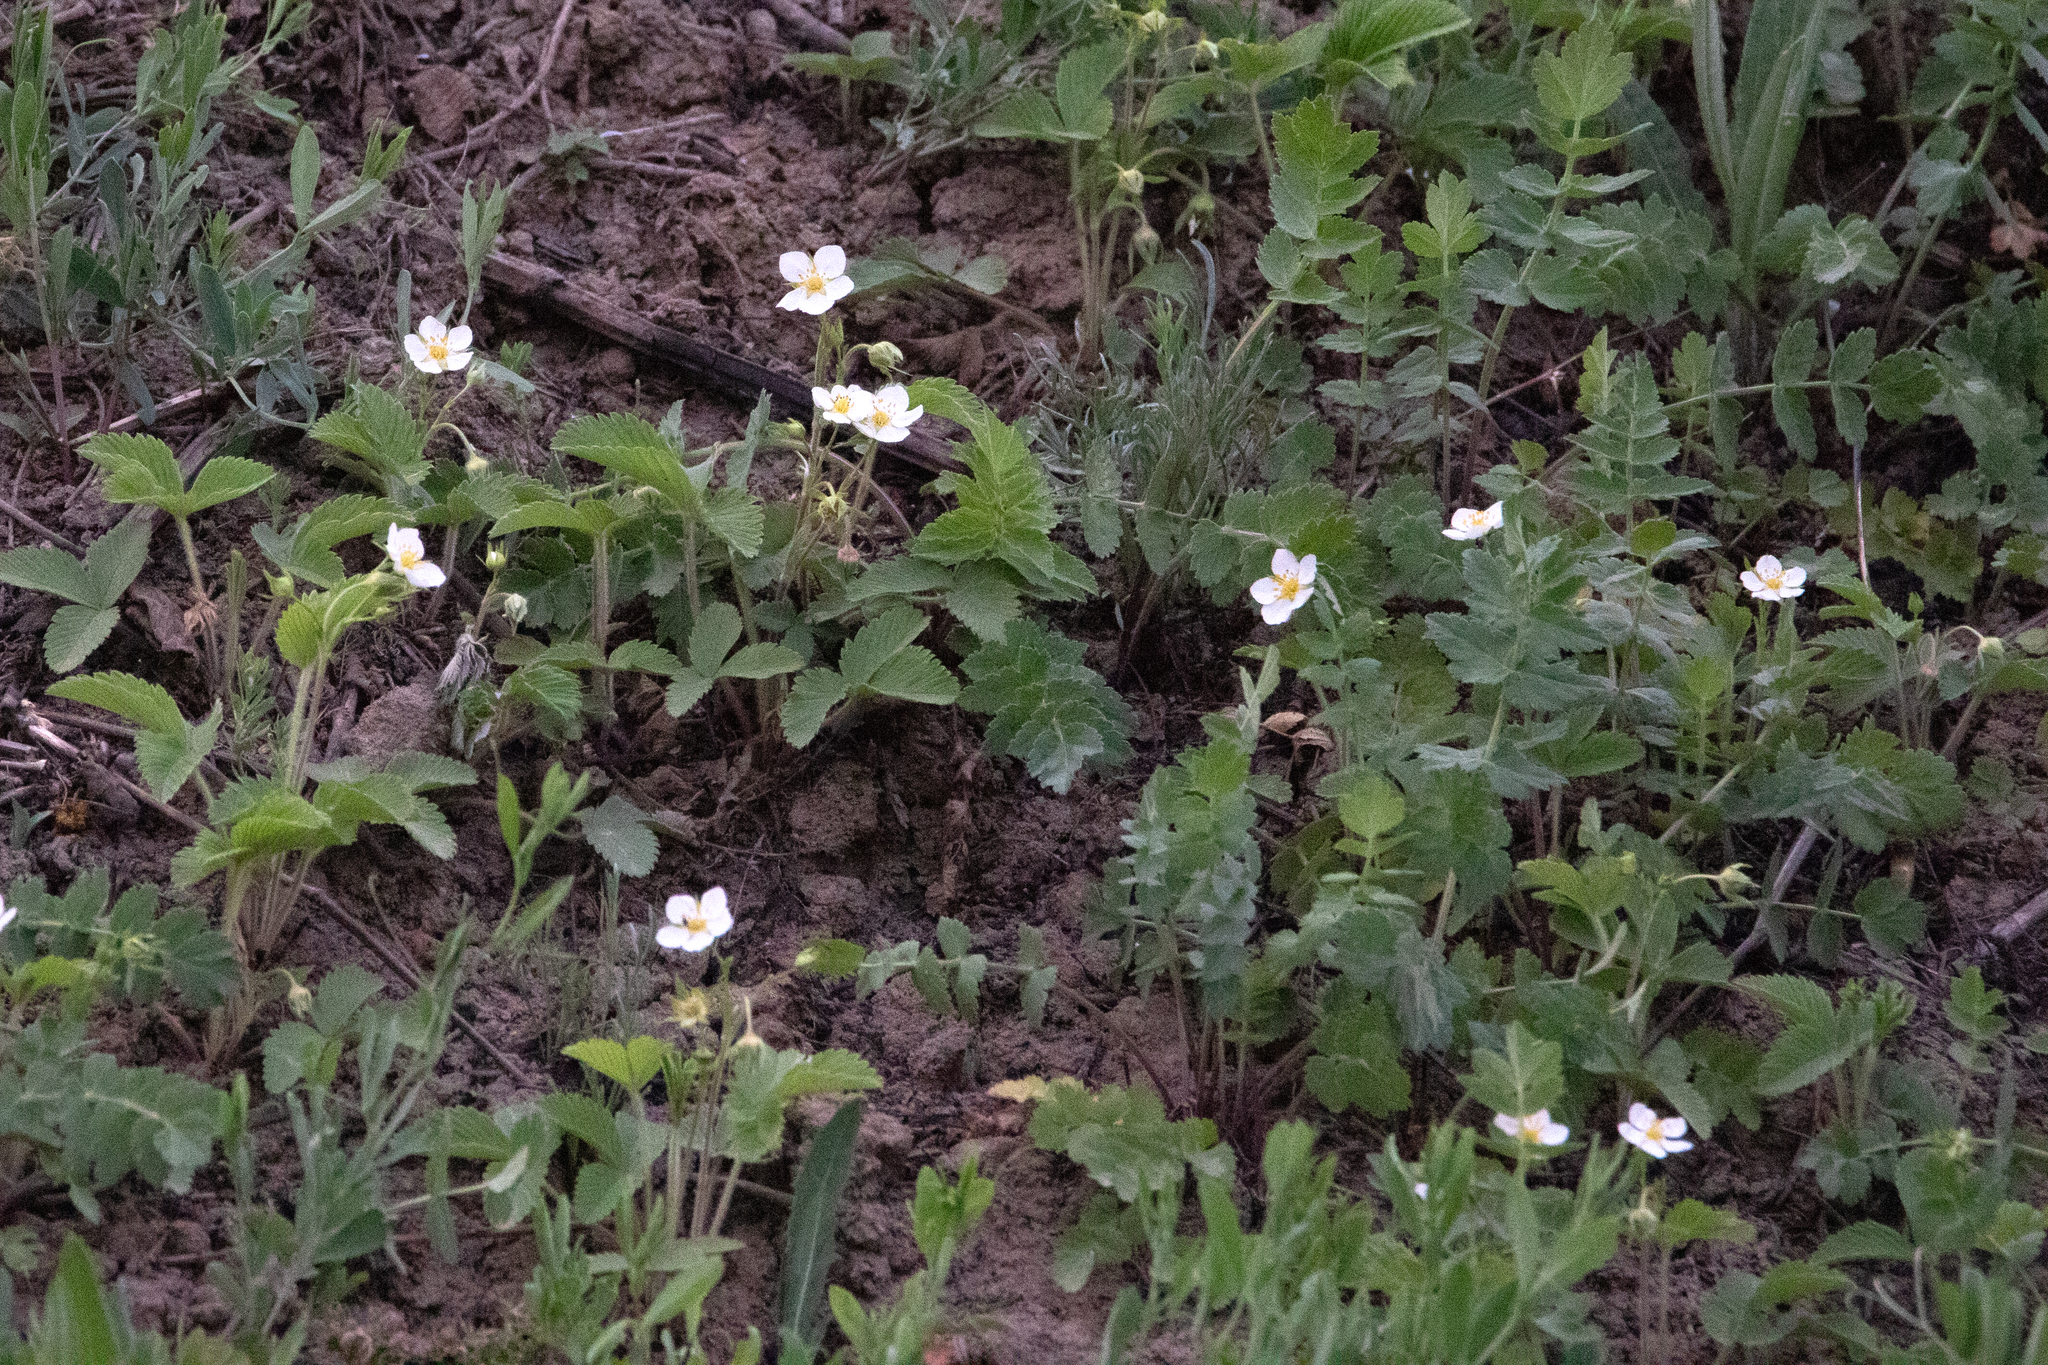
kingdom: Plantae
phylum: Tracheophyta
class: Magnoliopsida
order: Rosales
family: Rosaceae
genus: Fragaria
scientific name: Fragaria viridis
